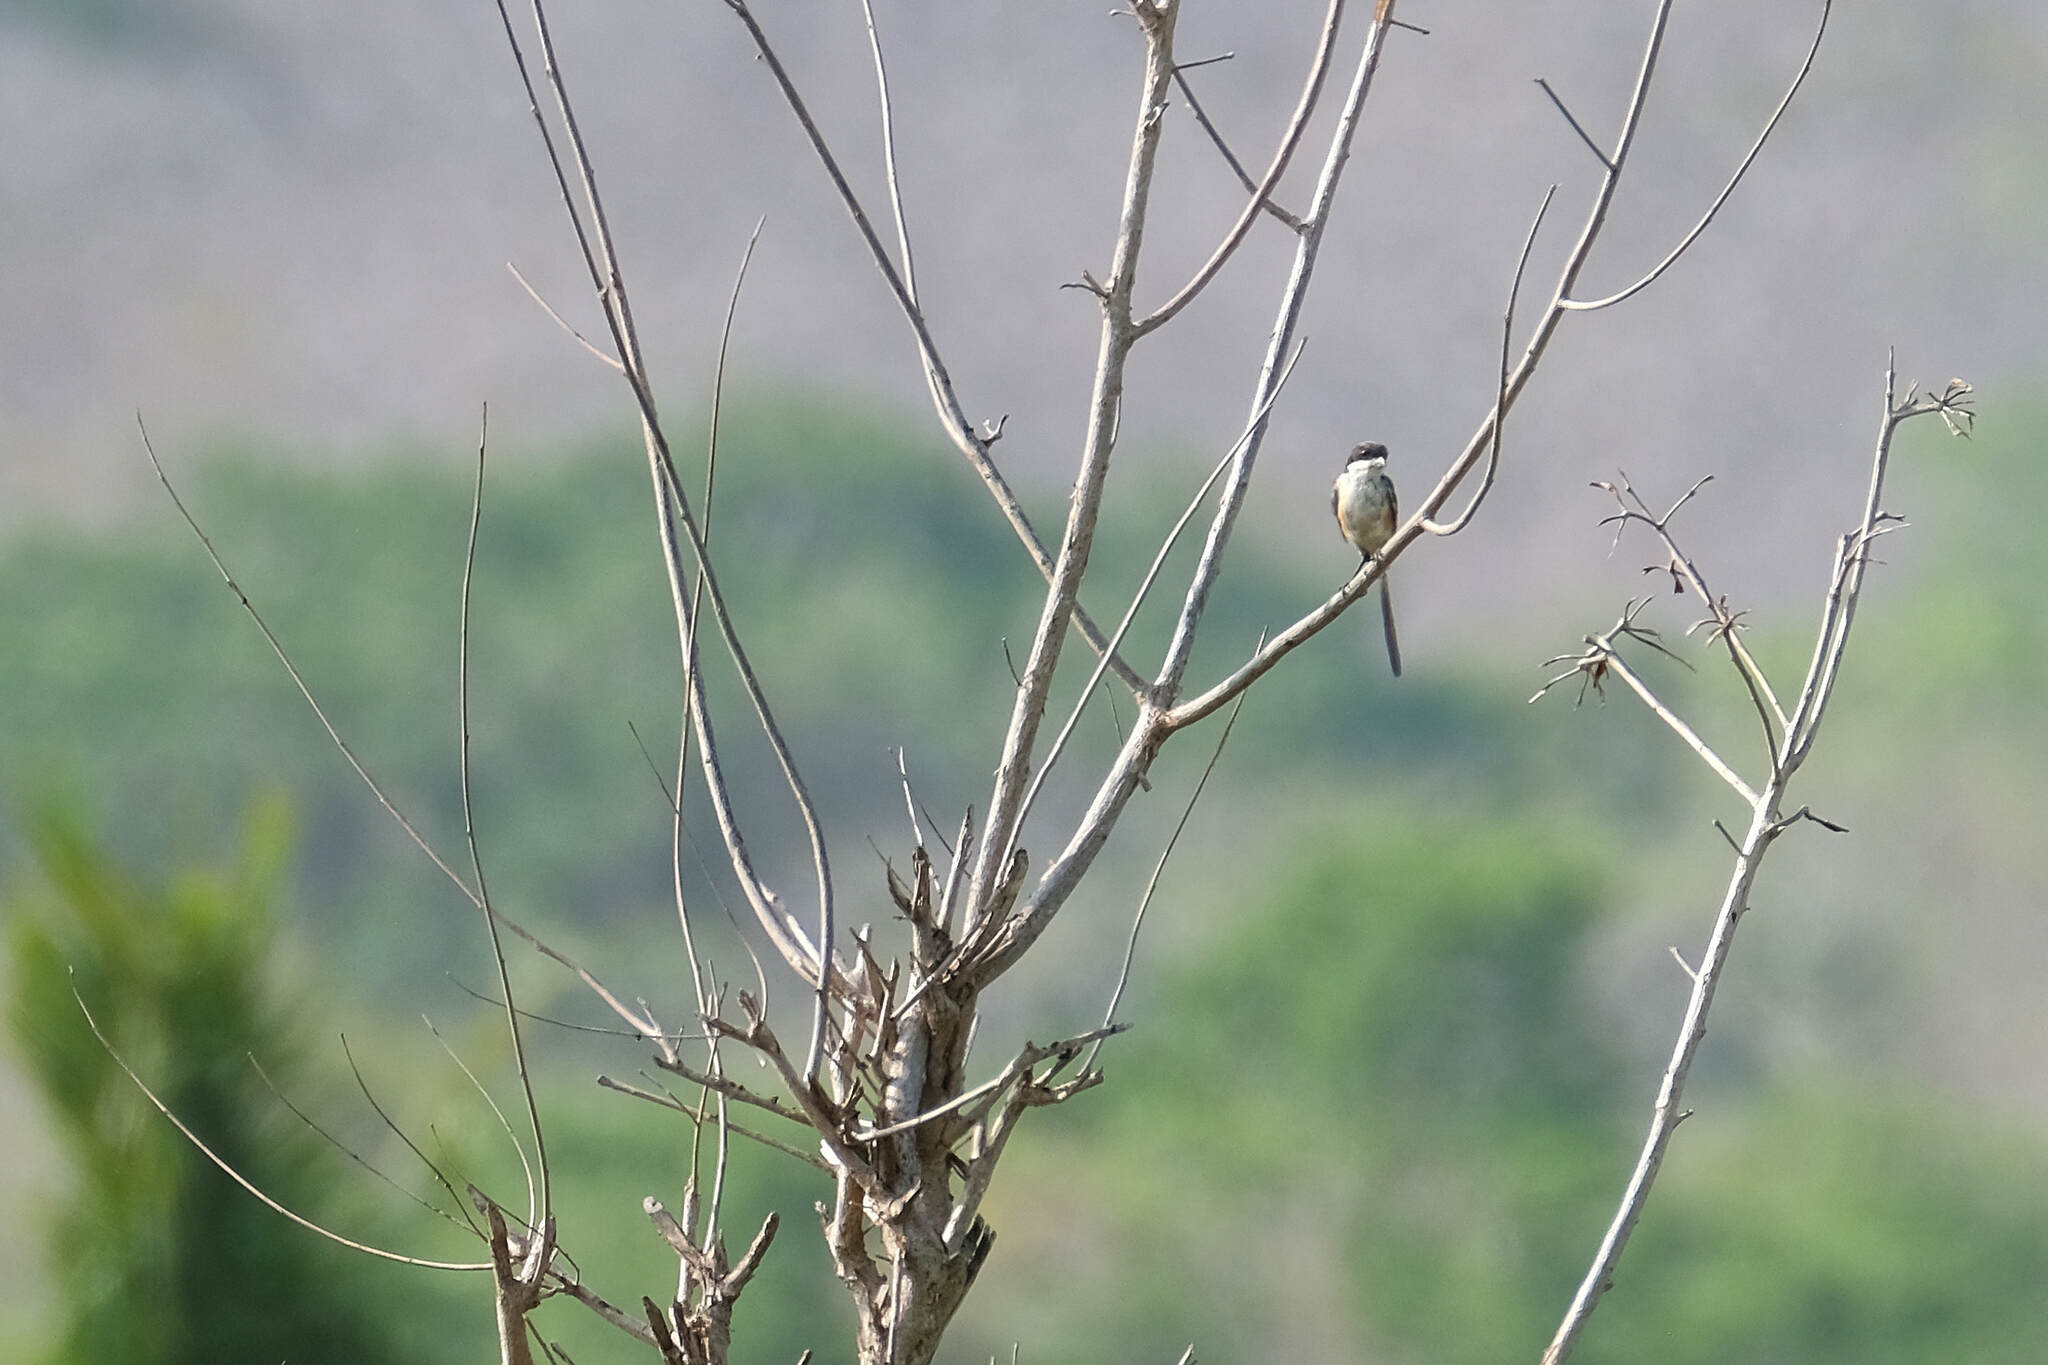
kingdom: Animalia
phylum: Chordata
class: Aves
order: Passeriformes
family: Laniidae
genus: Lanius
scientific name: Lanius schach
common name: Long-tailed shrike
